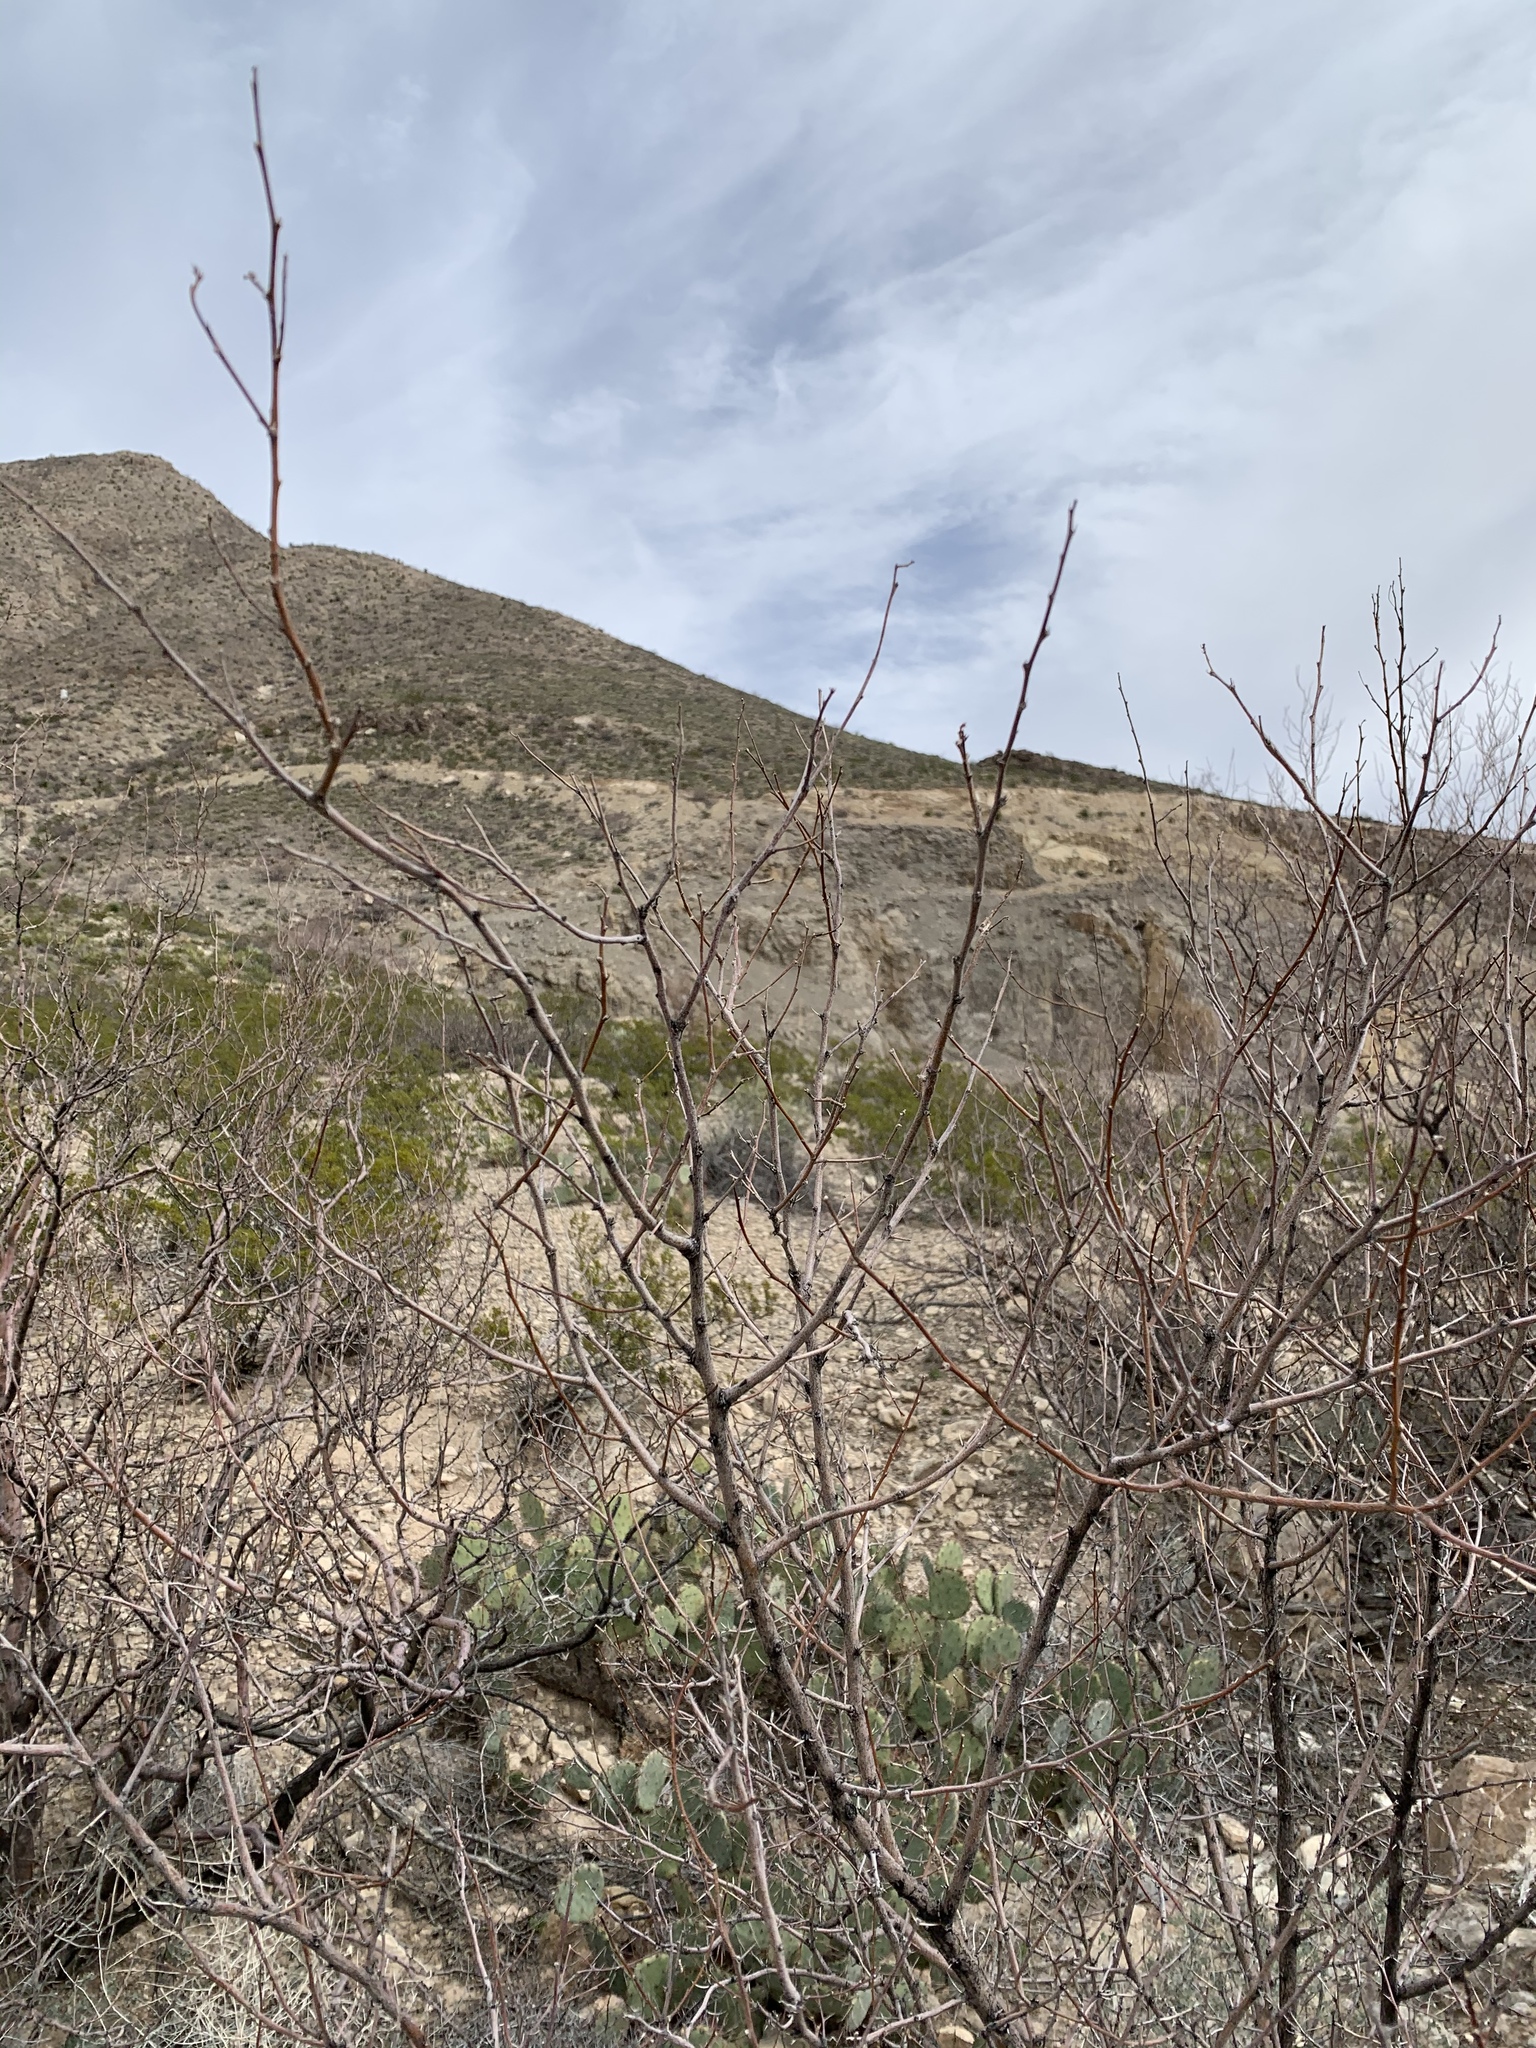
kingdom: Plantae
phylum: Tracheophyta
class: Magnoliopsida
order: Fabales
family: Fabaceae
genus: Prosopis
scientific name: Prosopis glandulosa
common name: Honey mesquite
